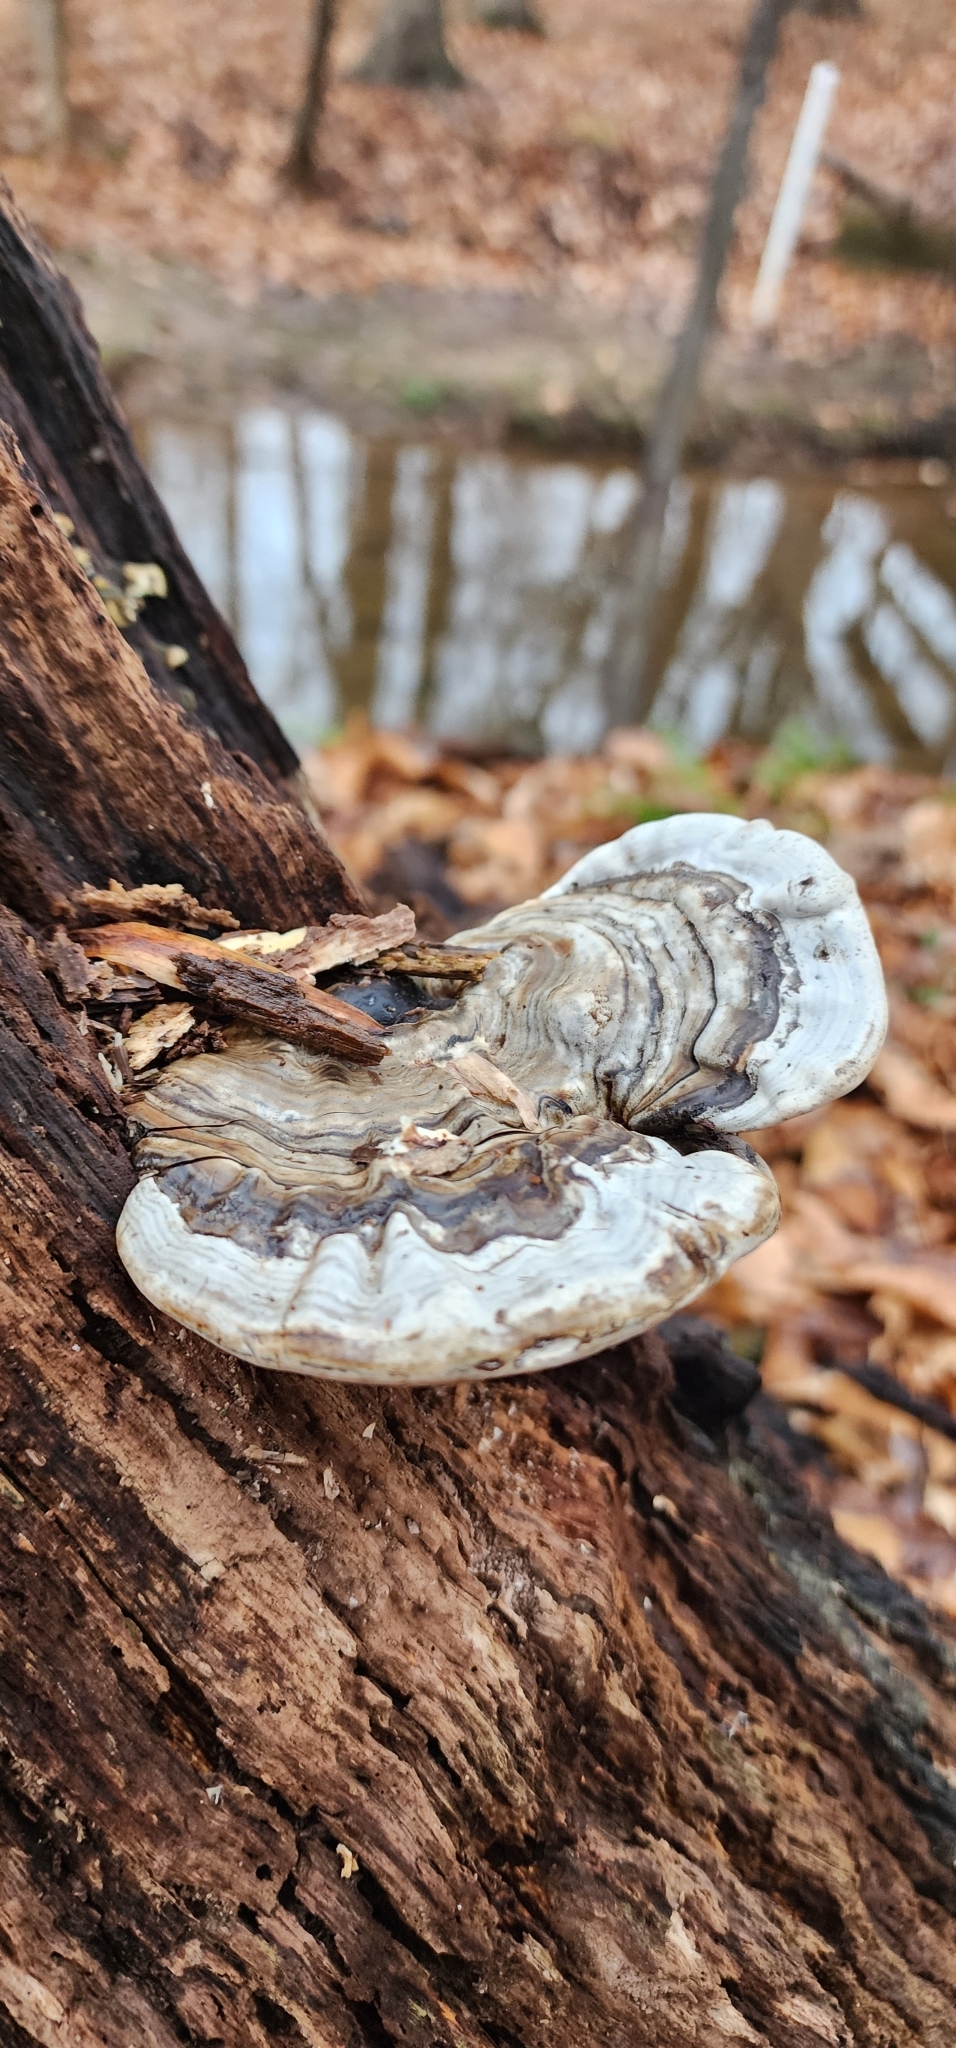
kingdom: Fungi
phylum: Basidiomycota
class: Agaricomycetes
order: Polyporales
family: Polyporaceae
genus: Ganoderma
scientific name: Ganoderma applanatum
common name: Artist's bracket
